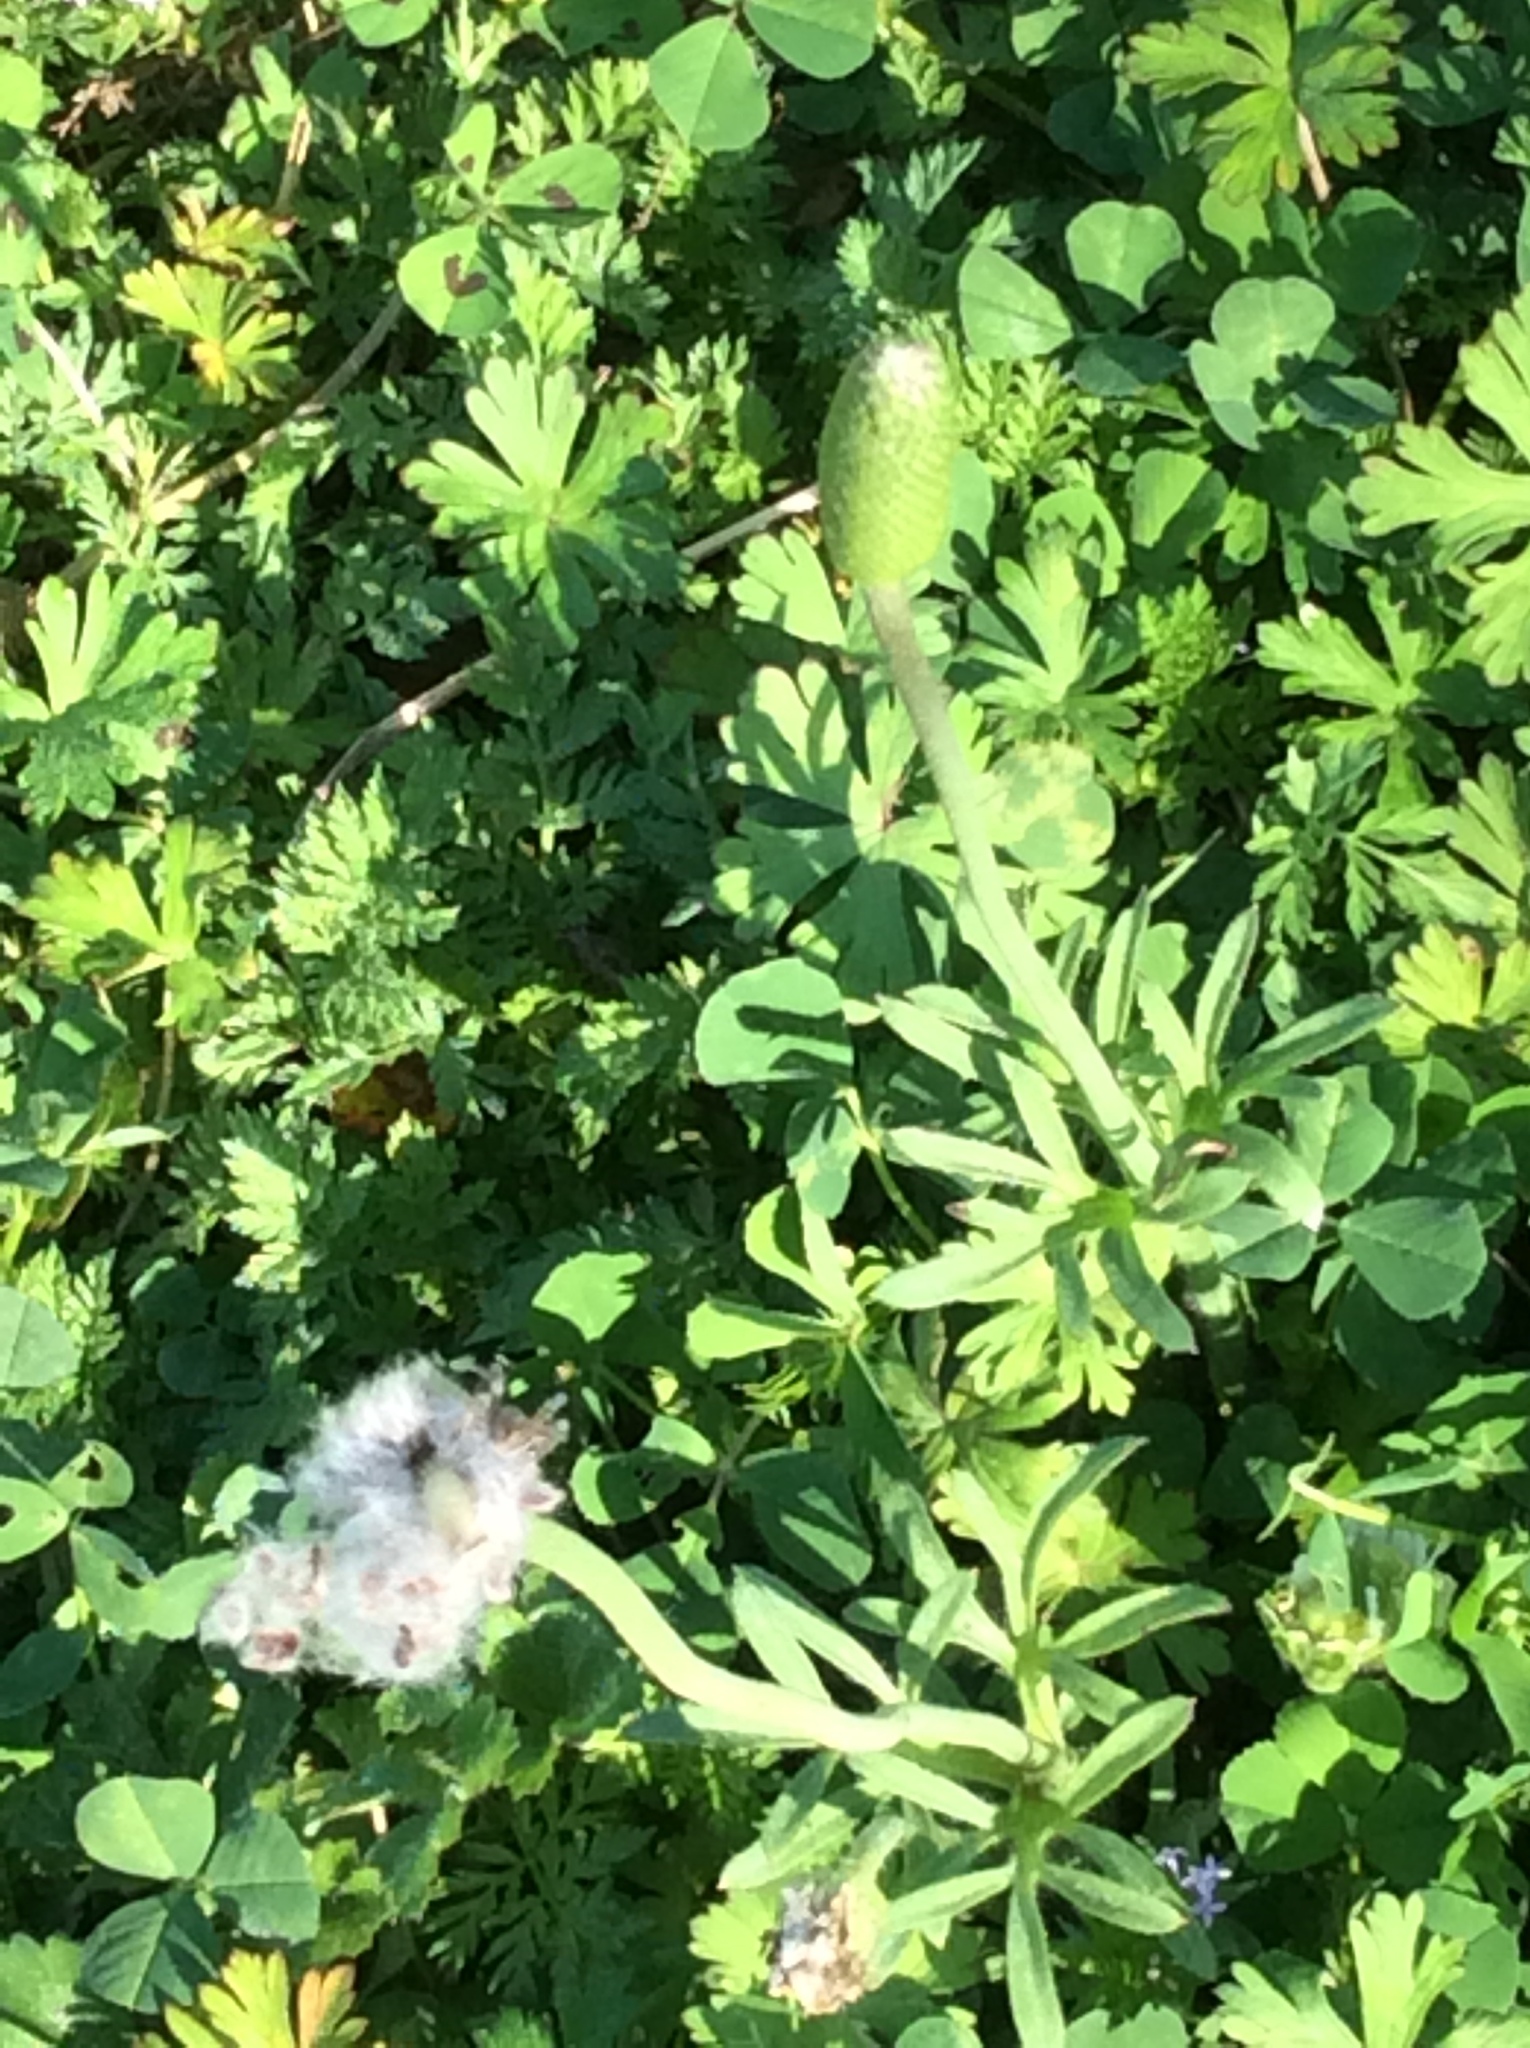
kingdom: Plantae
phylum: Tracheophyta
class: Magnoliopsida
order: Ranunculales
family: Ranunculaceae
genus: Anemone
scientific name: Anemone berlandieri
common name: Ten-petal anemone
